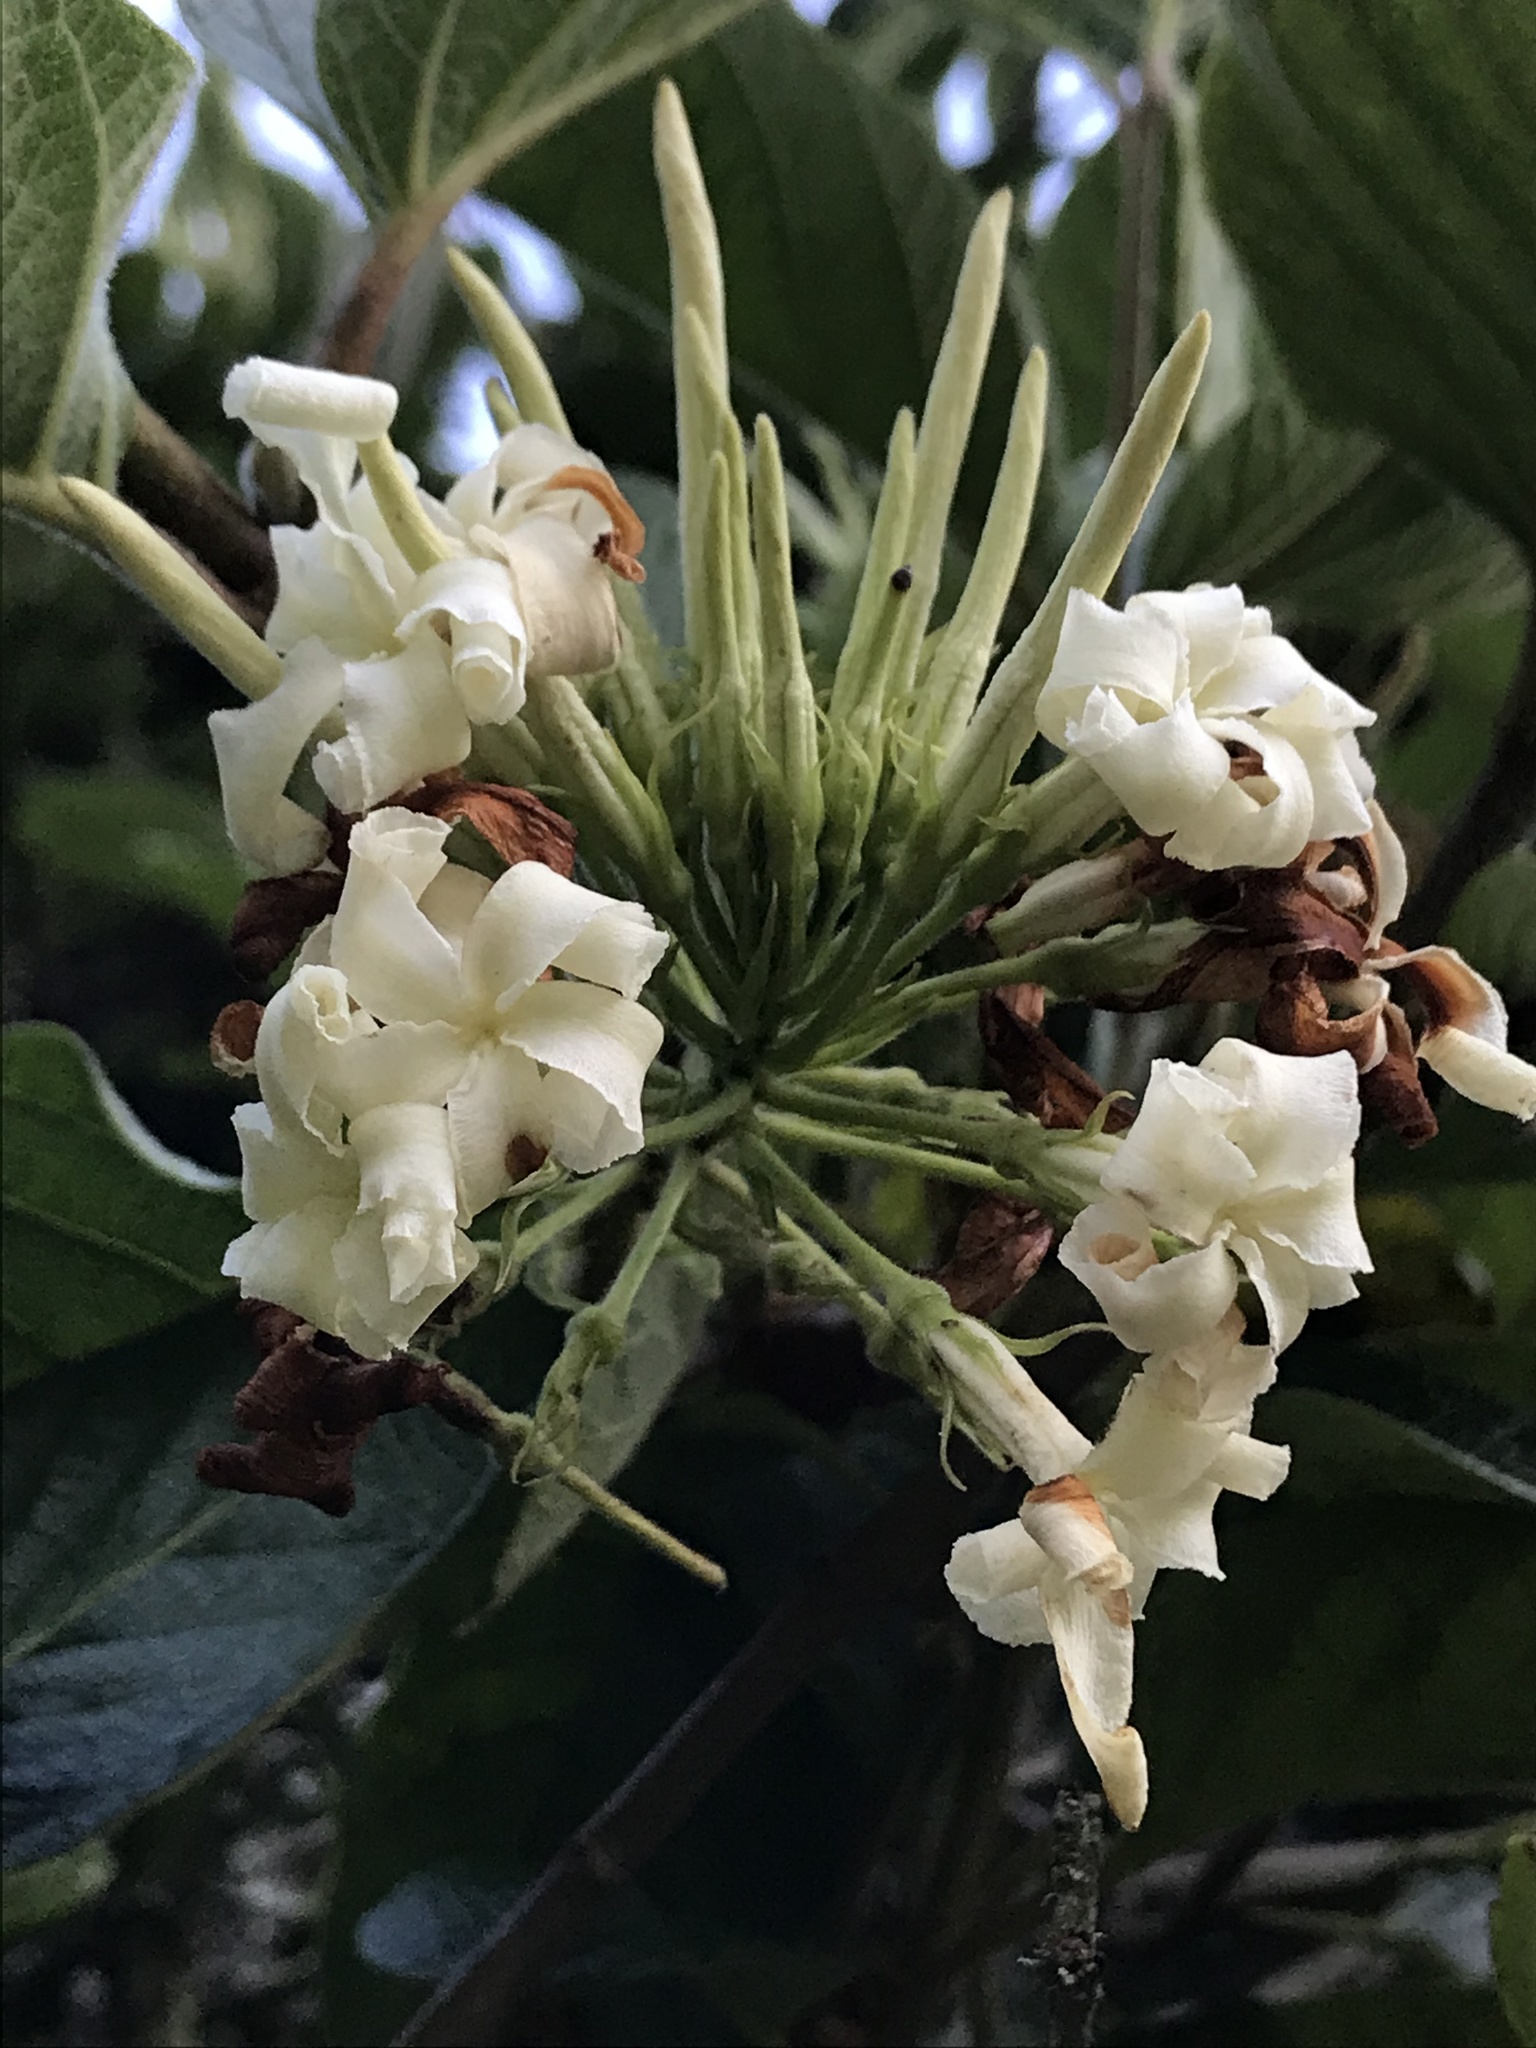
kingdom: Plantae
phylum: Tracheophyta
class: Magnoliopsida
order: Gentianales
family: Apocynaceae
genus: Mandevilla
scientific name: Mandevilla pubescens
